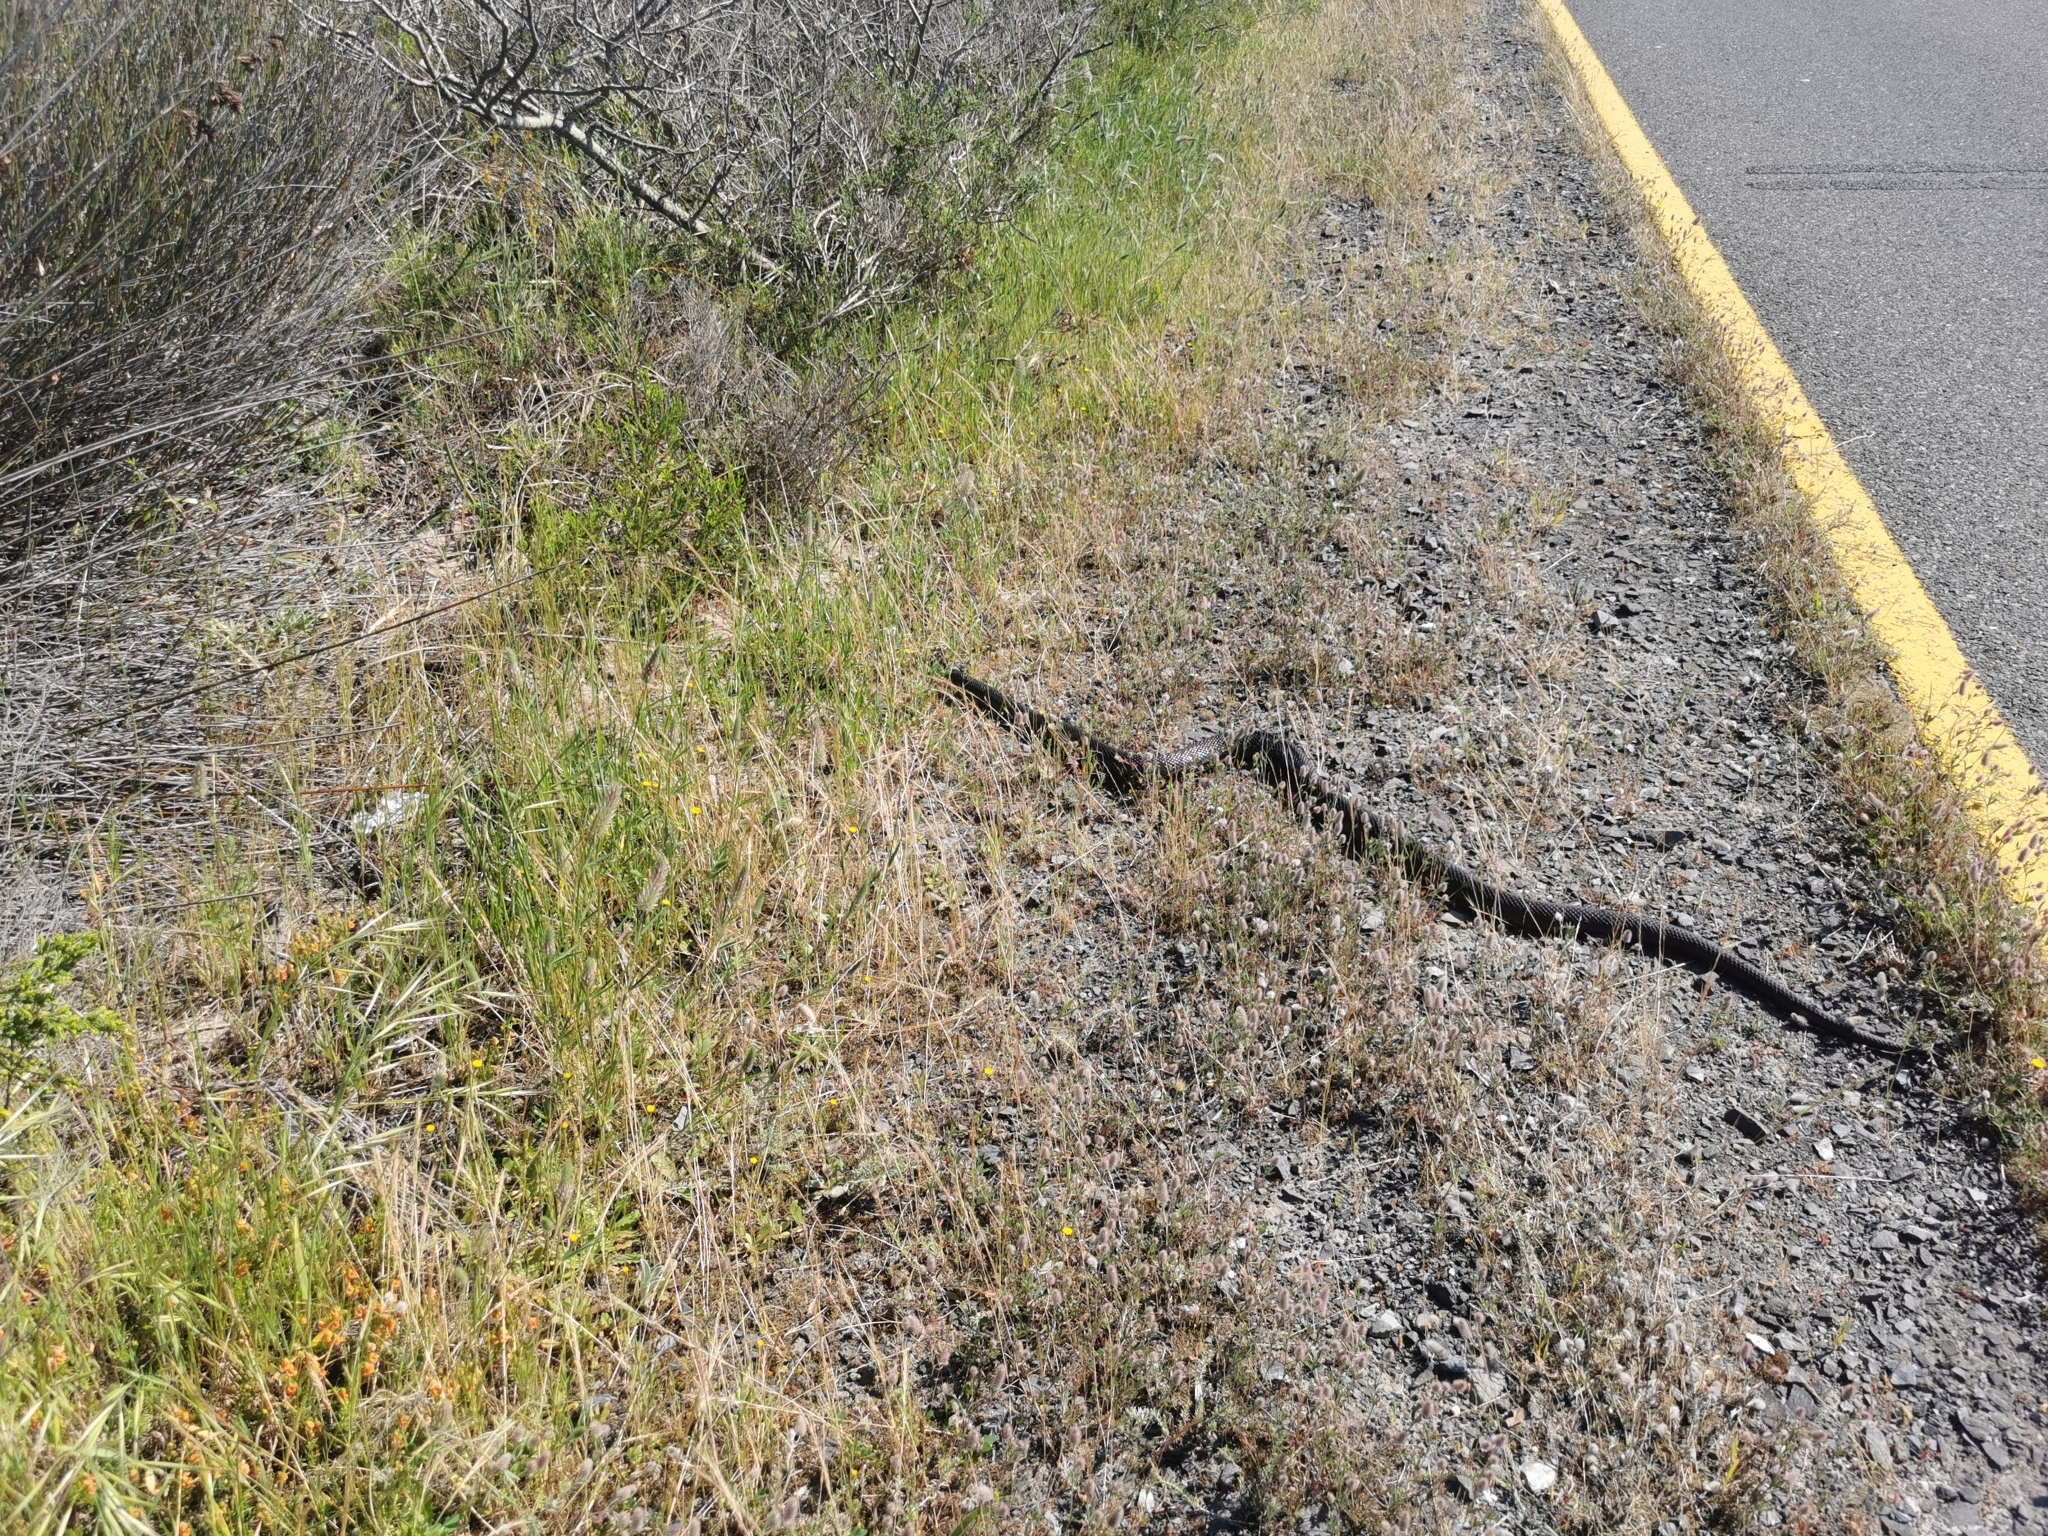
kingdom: Animalia
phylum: Chordata
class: Squamata
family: Pseudaspididae
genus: Pseudaspis
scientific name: Pseudaspis cana
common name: Mole snake
